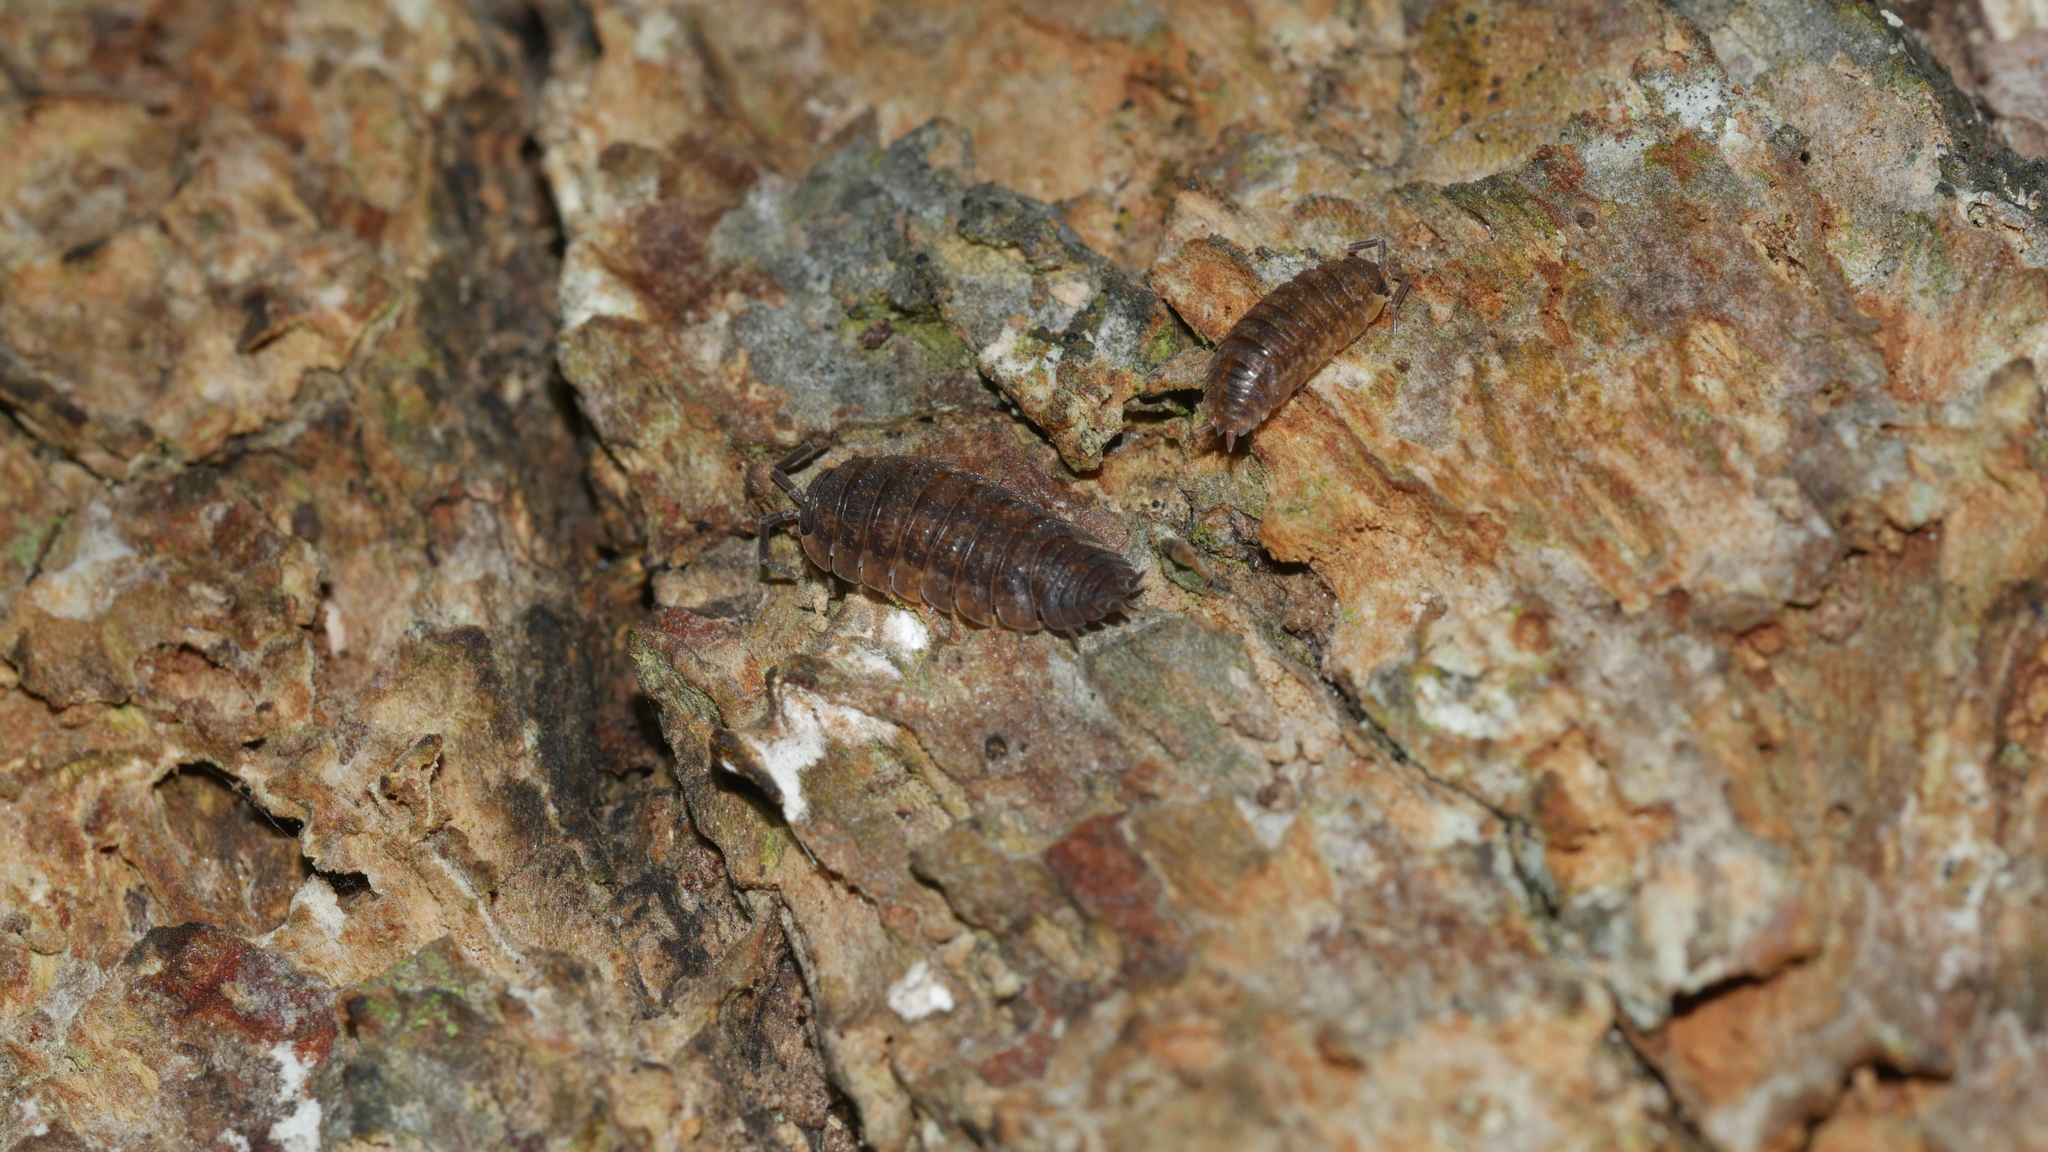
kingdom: Animalia
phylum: Arthropoda
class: Malacostraca
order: Isopoda
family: Porcellionidae
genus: Porcellio
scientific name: Porcellio scaber
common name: Common rough woodlouse
